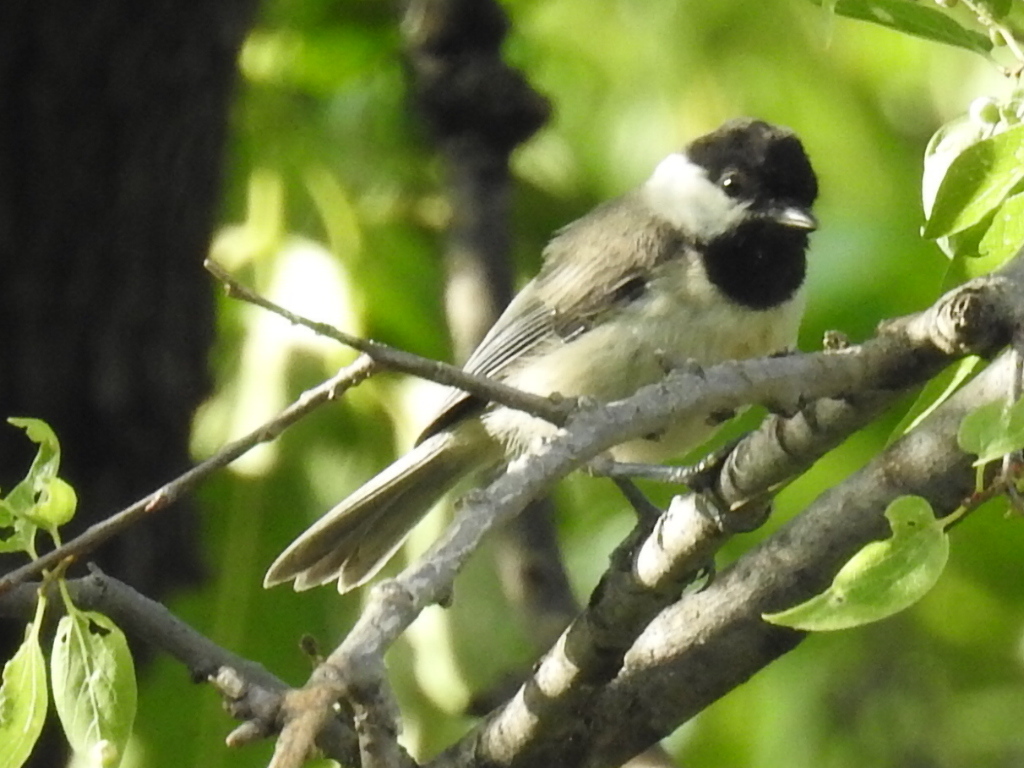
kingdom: Animalia
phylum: Chordata
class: Aves
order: Passeriformes
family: Paridae
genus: Poecile
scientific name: Poecile carolinensis
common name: Carolina chickadee
